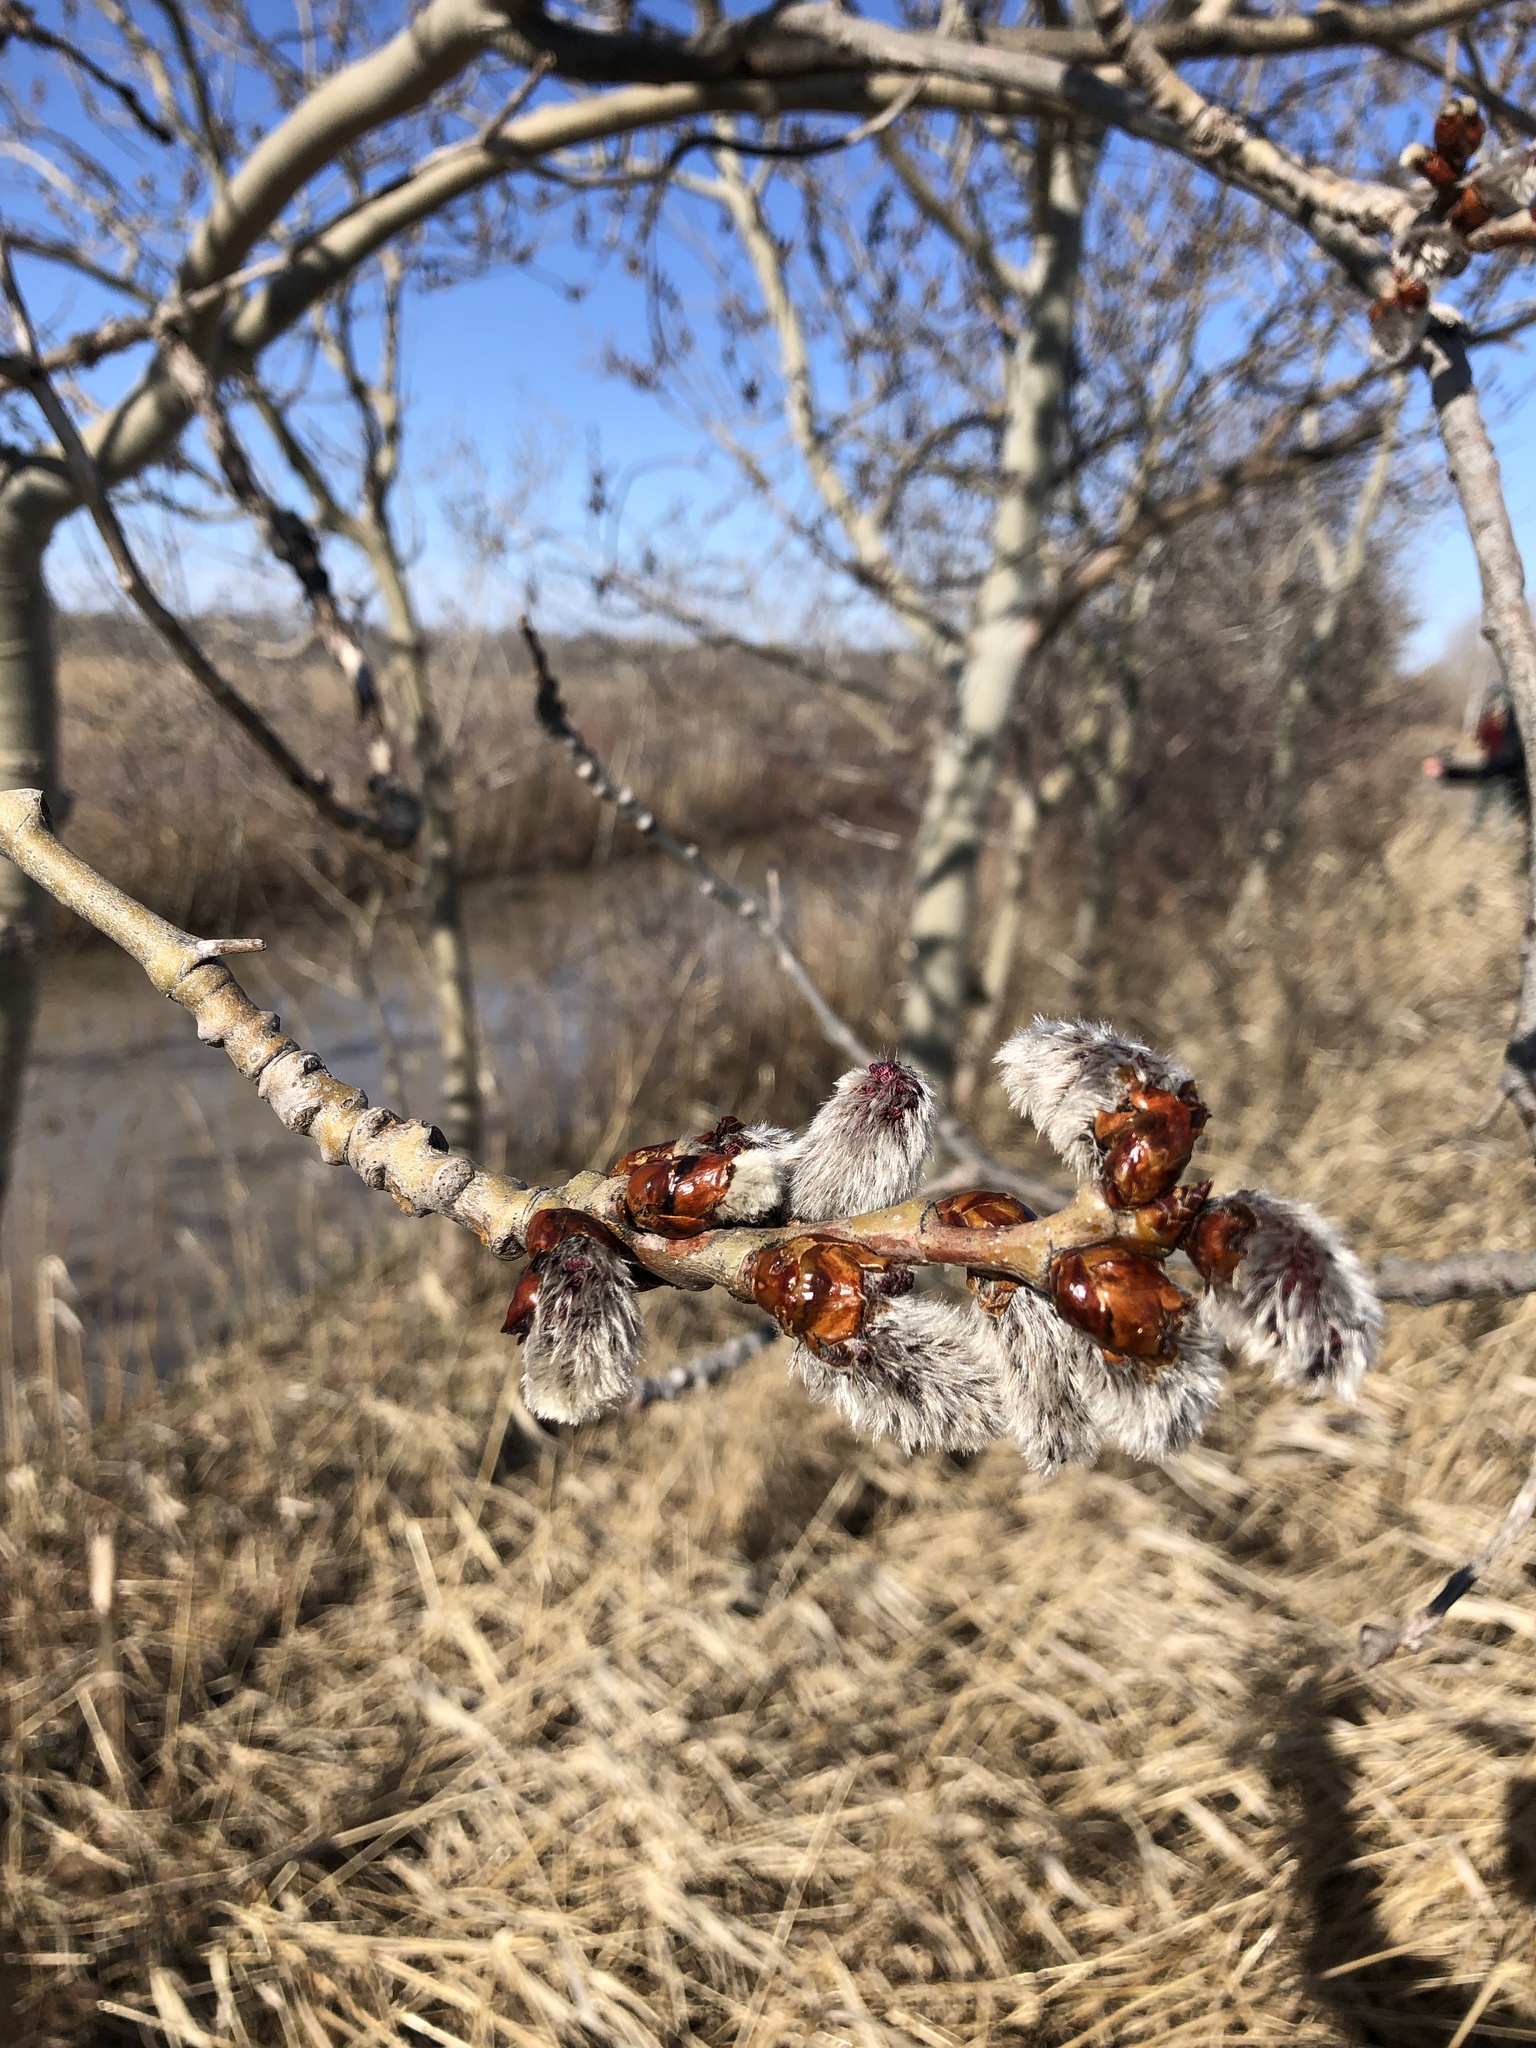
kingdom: Plantae
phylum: Tracheophyta
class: Magnoliopsida
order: Malpighiales
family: Salicaceae
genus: Populus
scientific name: Populus tremuloides
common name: Quaking aspen
